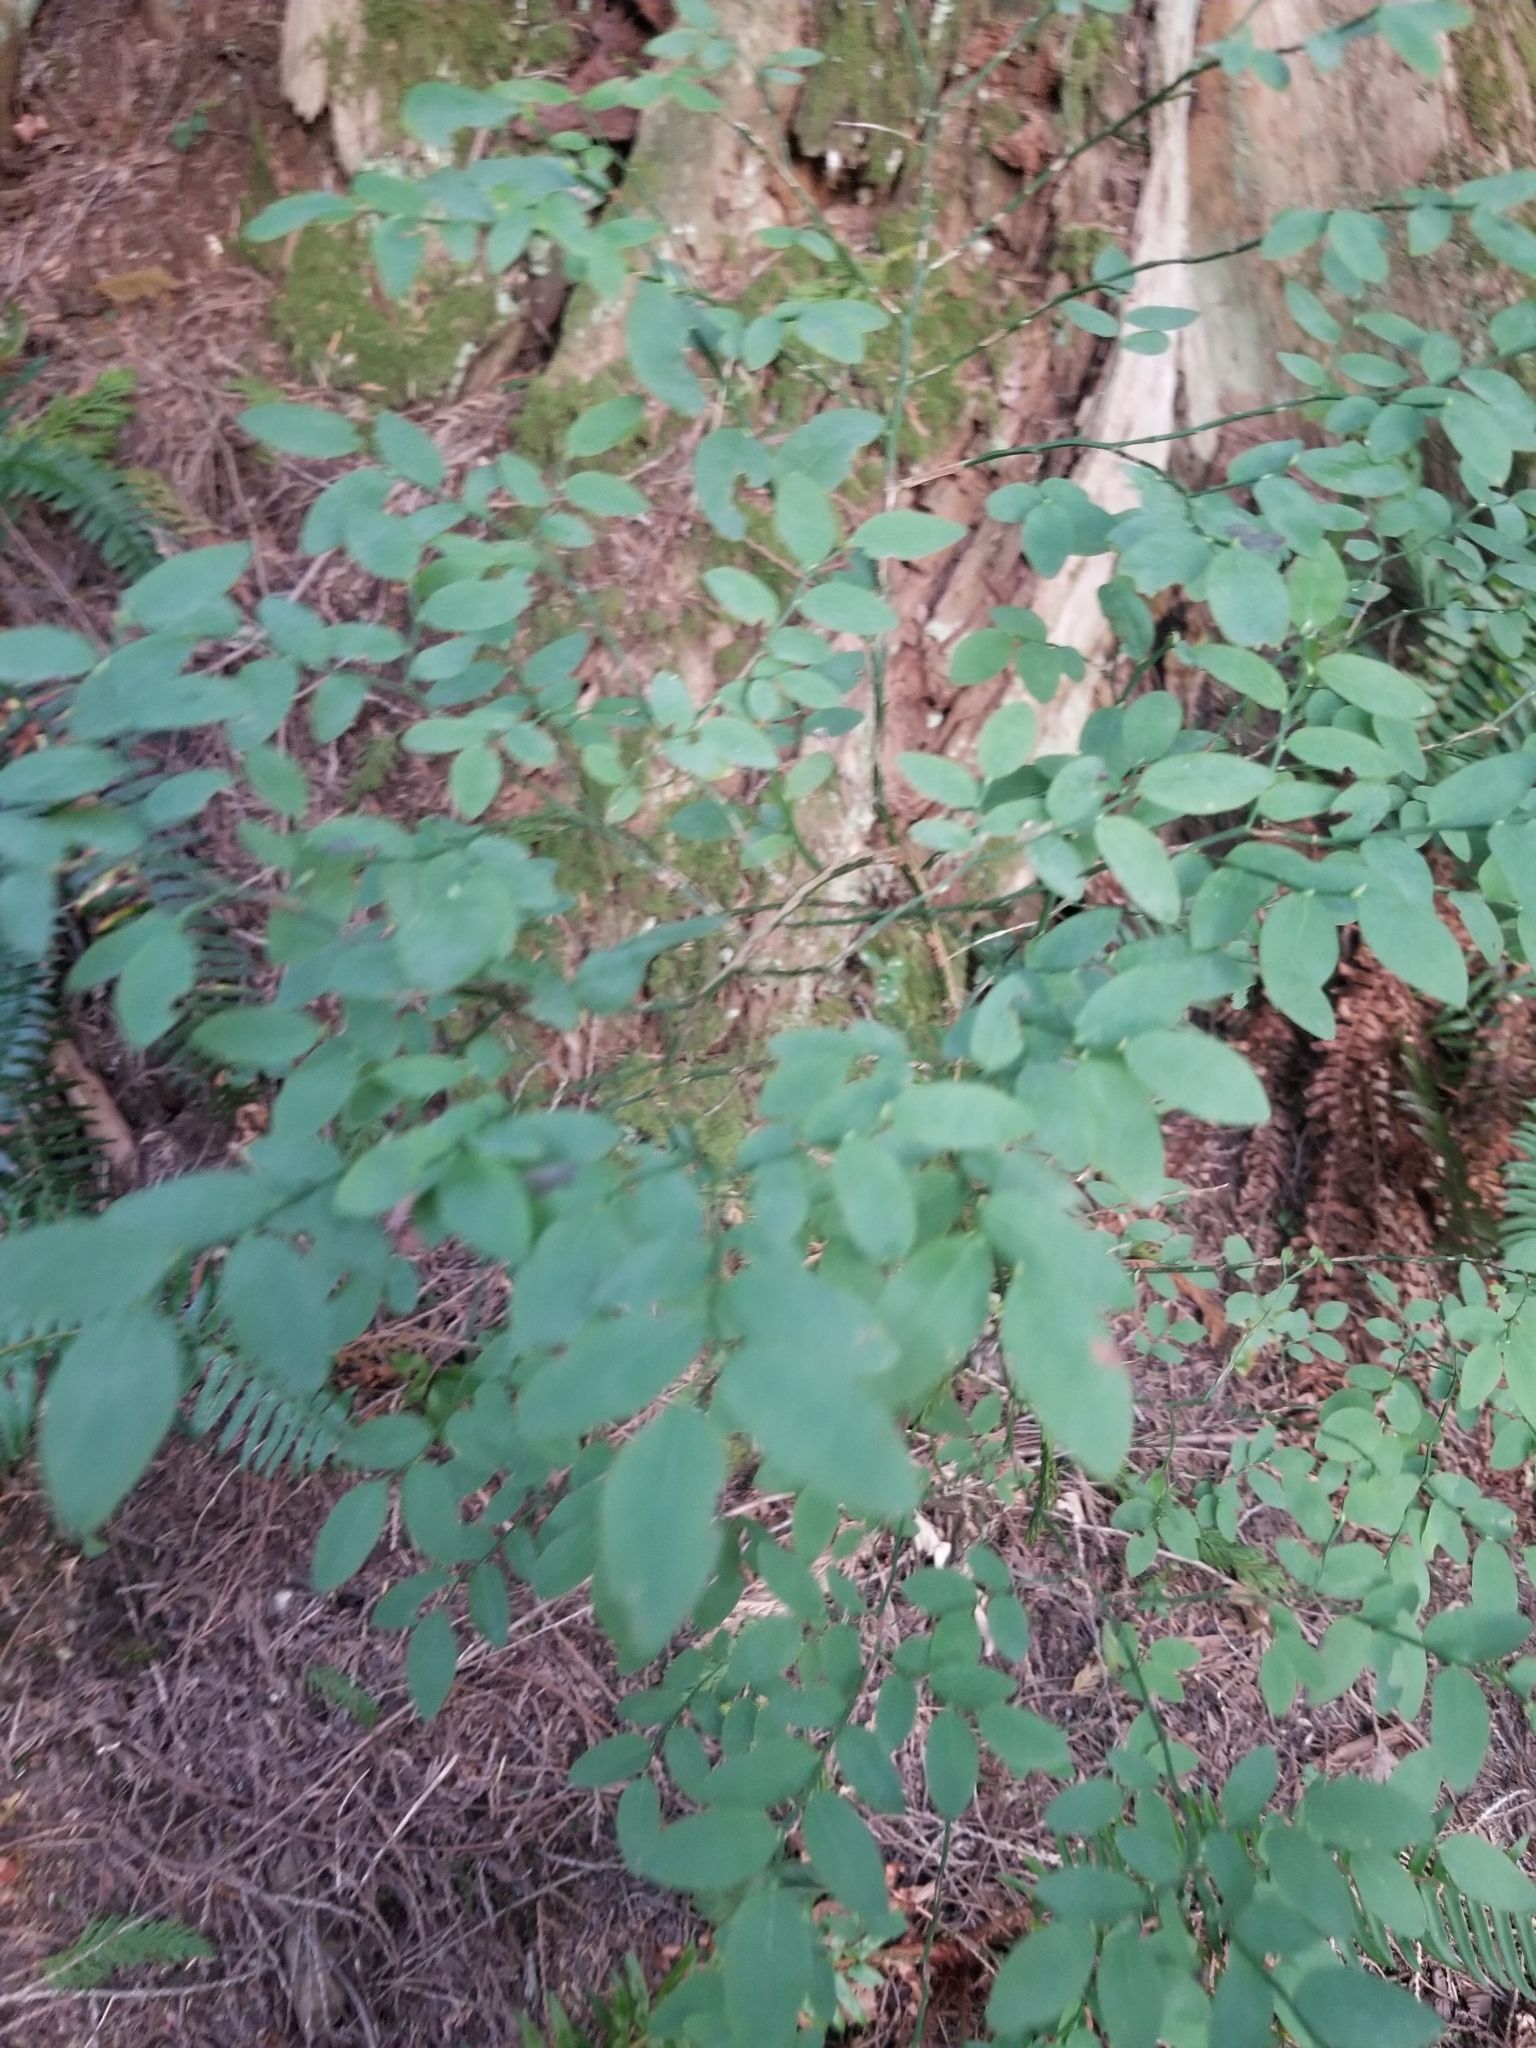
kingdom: Plantae
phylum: Tracheophyta
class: Magnoliopsida
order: Ericales
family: Ericaceae
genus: Vaccinium
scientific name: Vaccinium parvifolium
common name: Red-huckleberry
